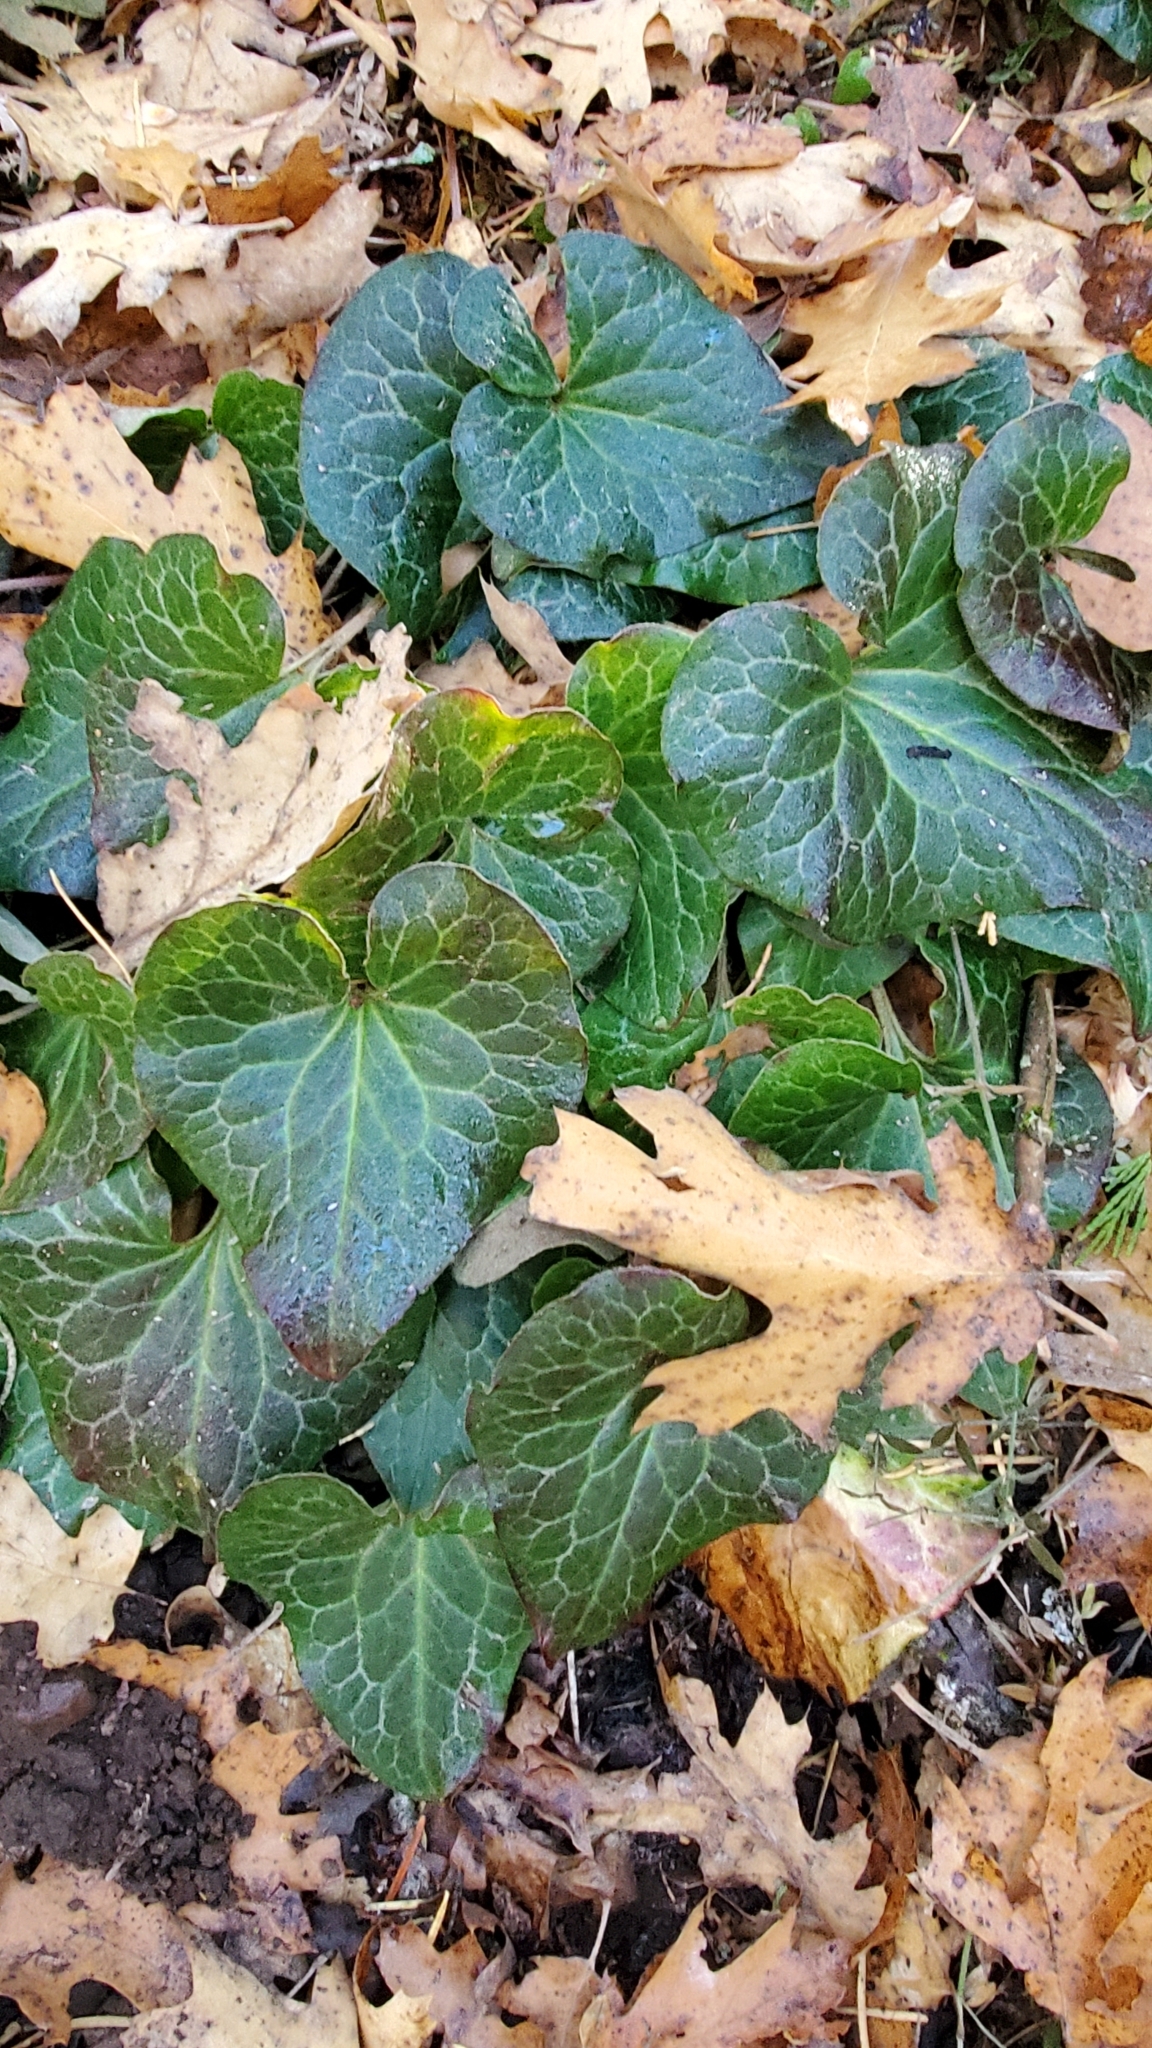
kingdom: Plantae
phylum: Tracheophyta
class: Magnoliopsida
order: Piperales
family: Aristolochiaceae
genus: Asarum
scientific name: Asarum hartwegii
